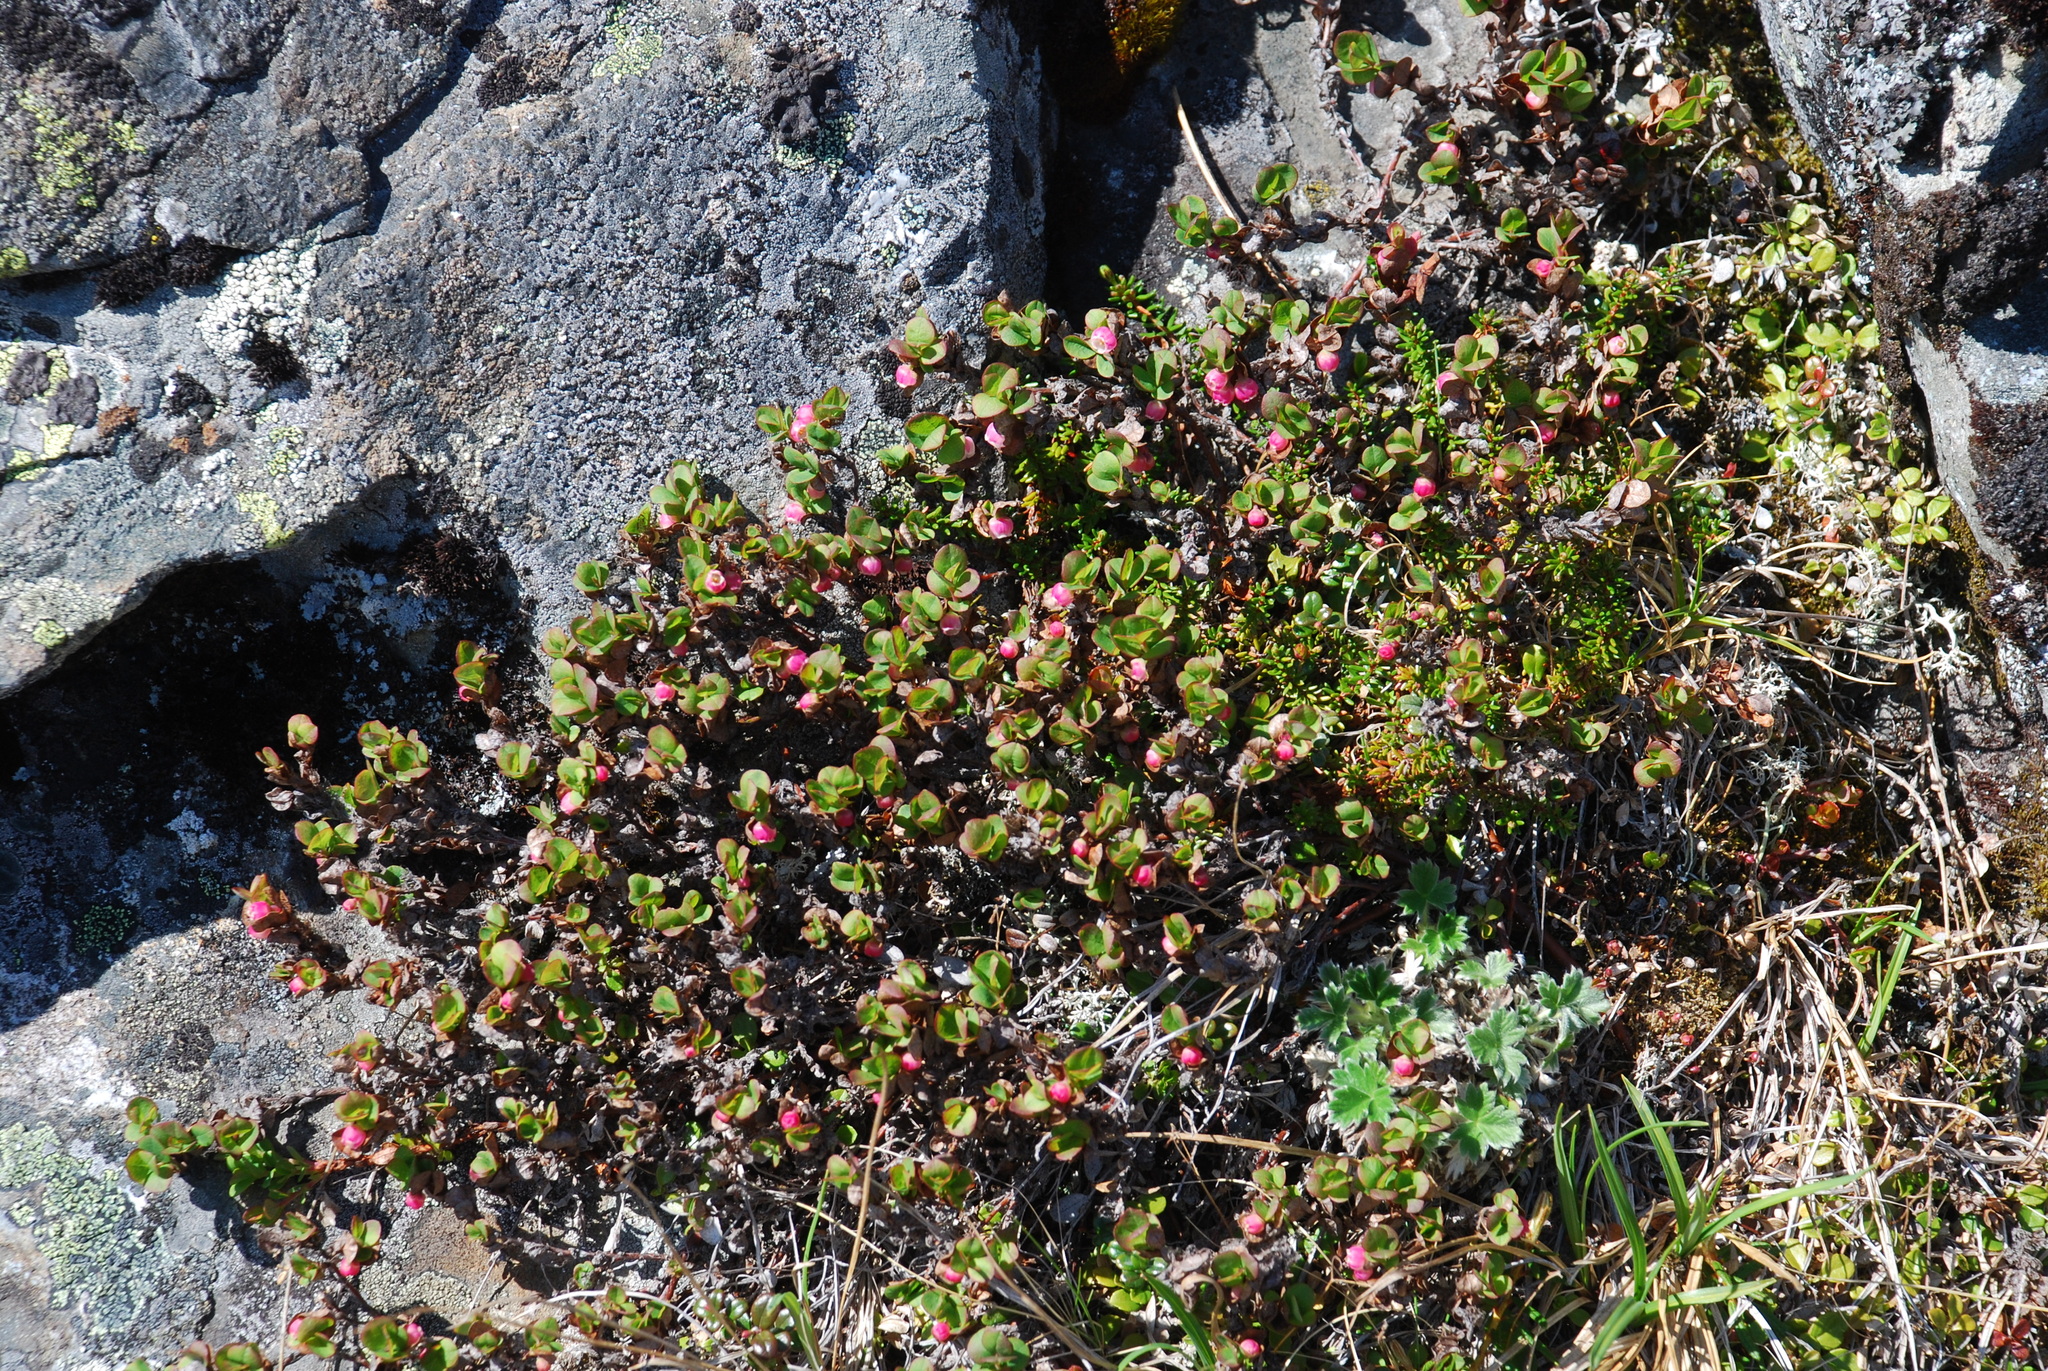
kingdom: Plantae
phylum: Tracheophyta
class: Magnoliopsida
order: Ericales
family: Ericaceae
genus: Vaccinium
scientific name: Vaccinium uliginosum
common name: Bog bilberry
